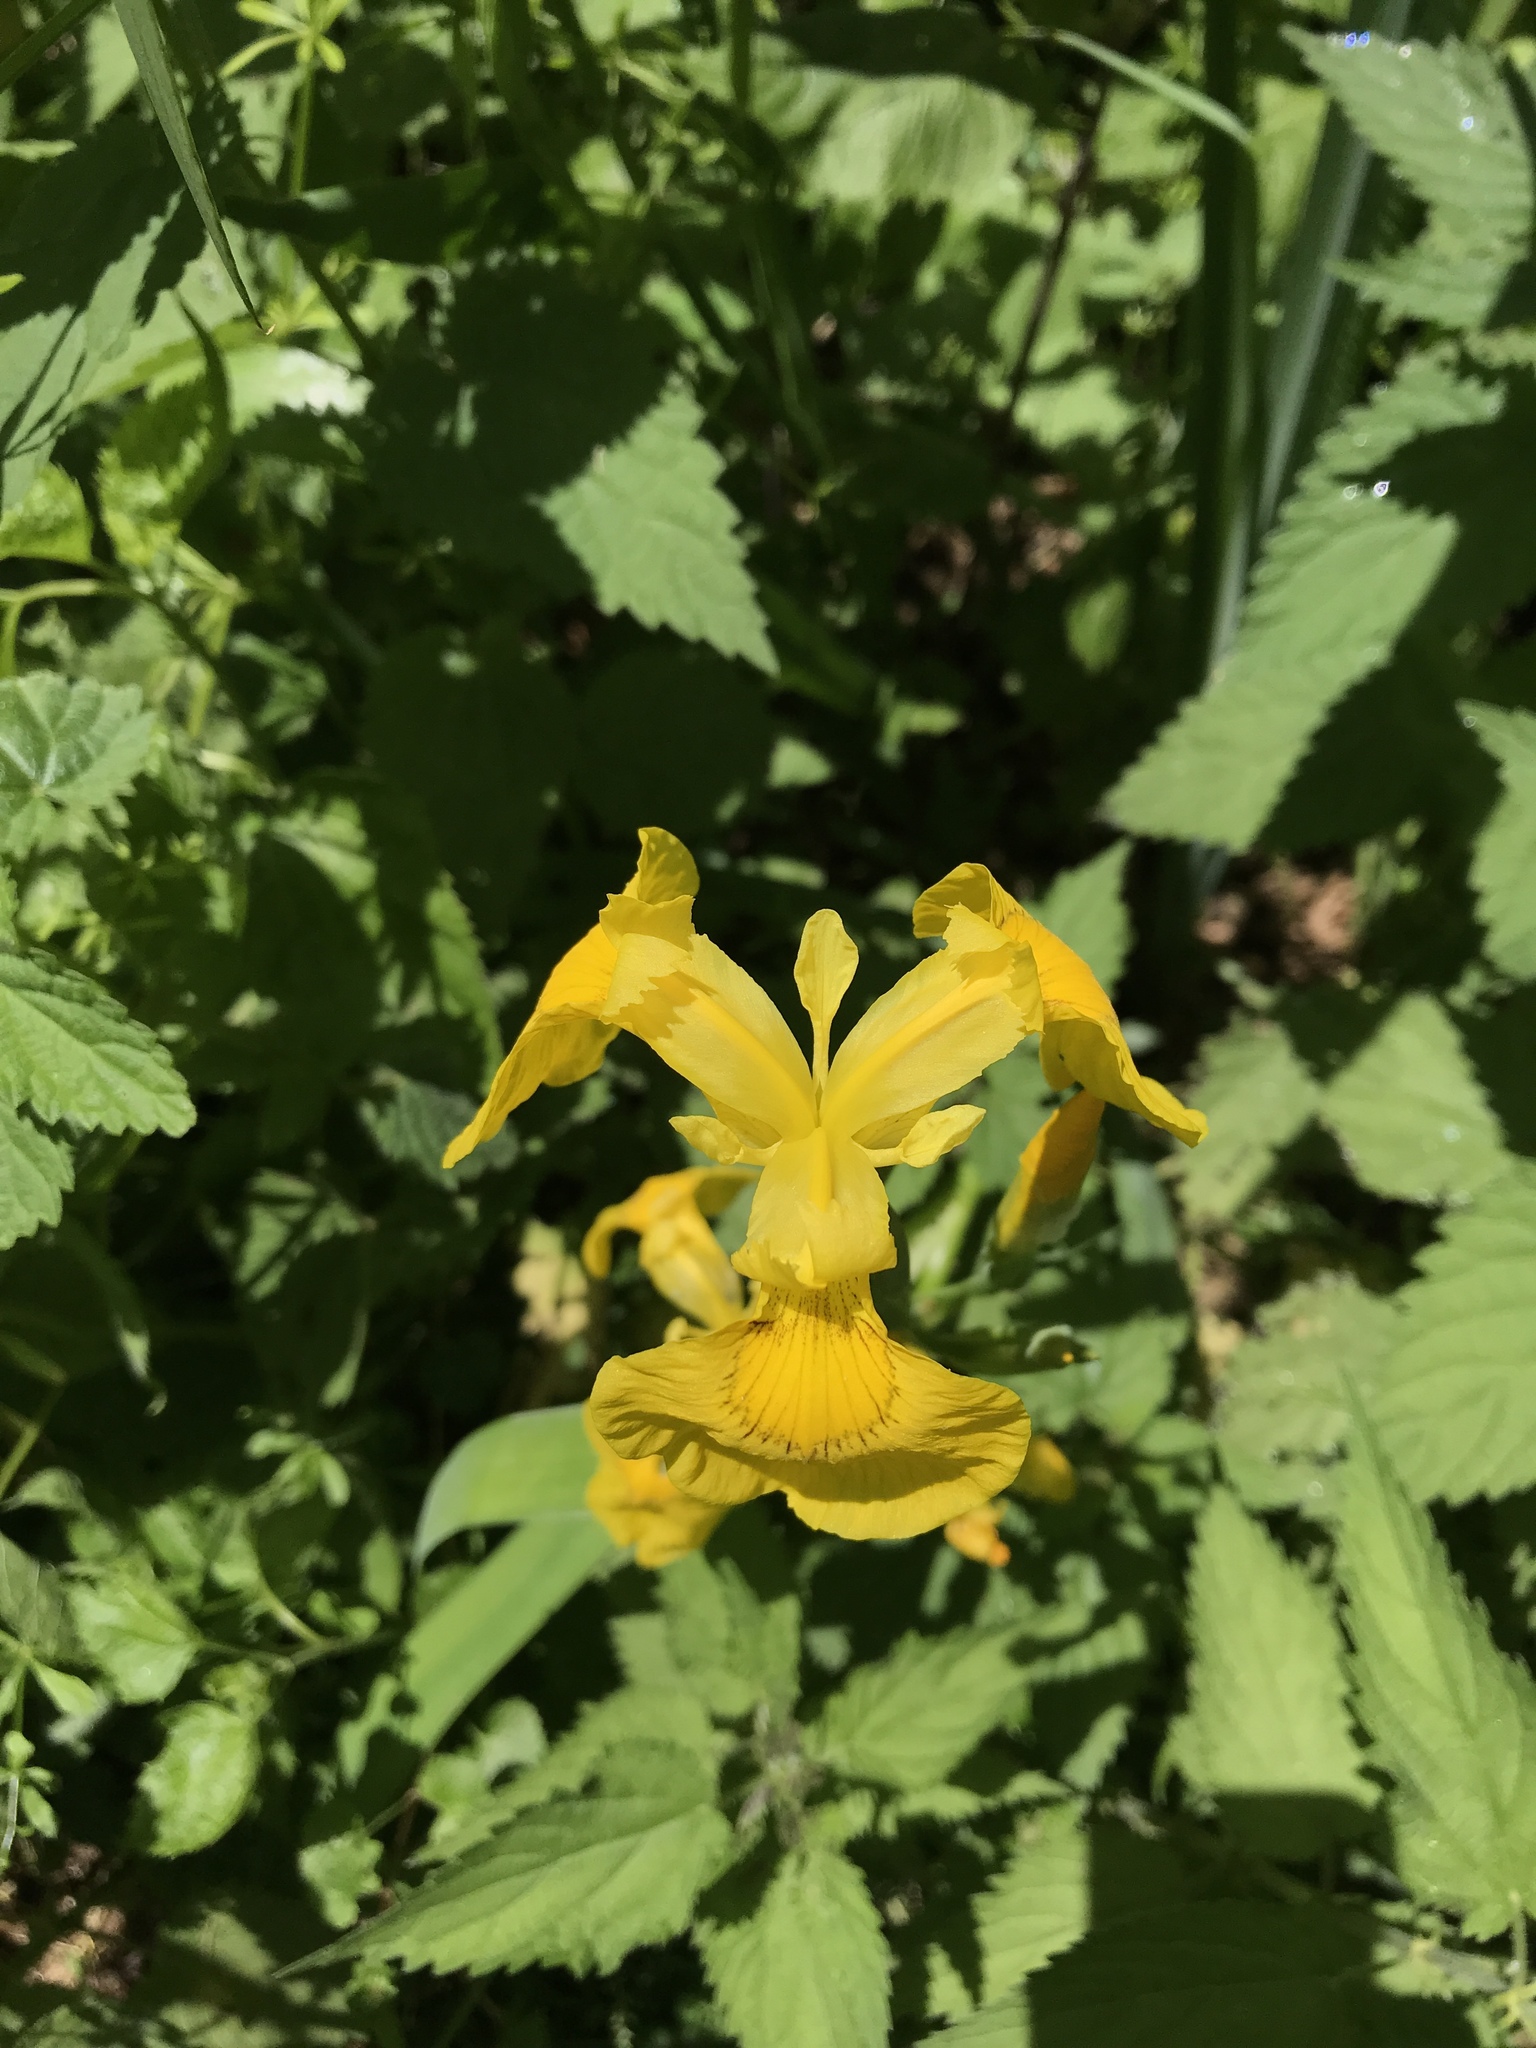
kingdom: Plantae
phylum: Tracheophyta
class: Liliopsida
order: Asparagales
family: Iridaceae
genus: Iris
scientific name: Iris pseudacorus
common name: Yellow flag
